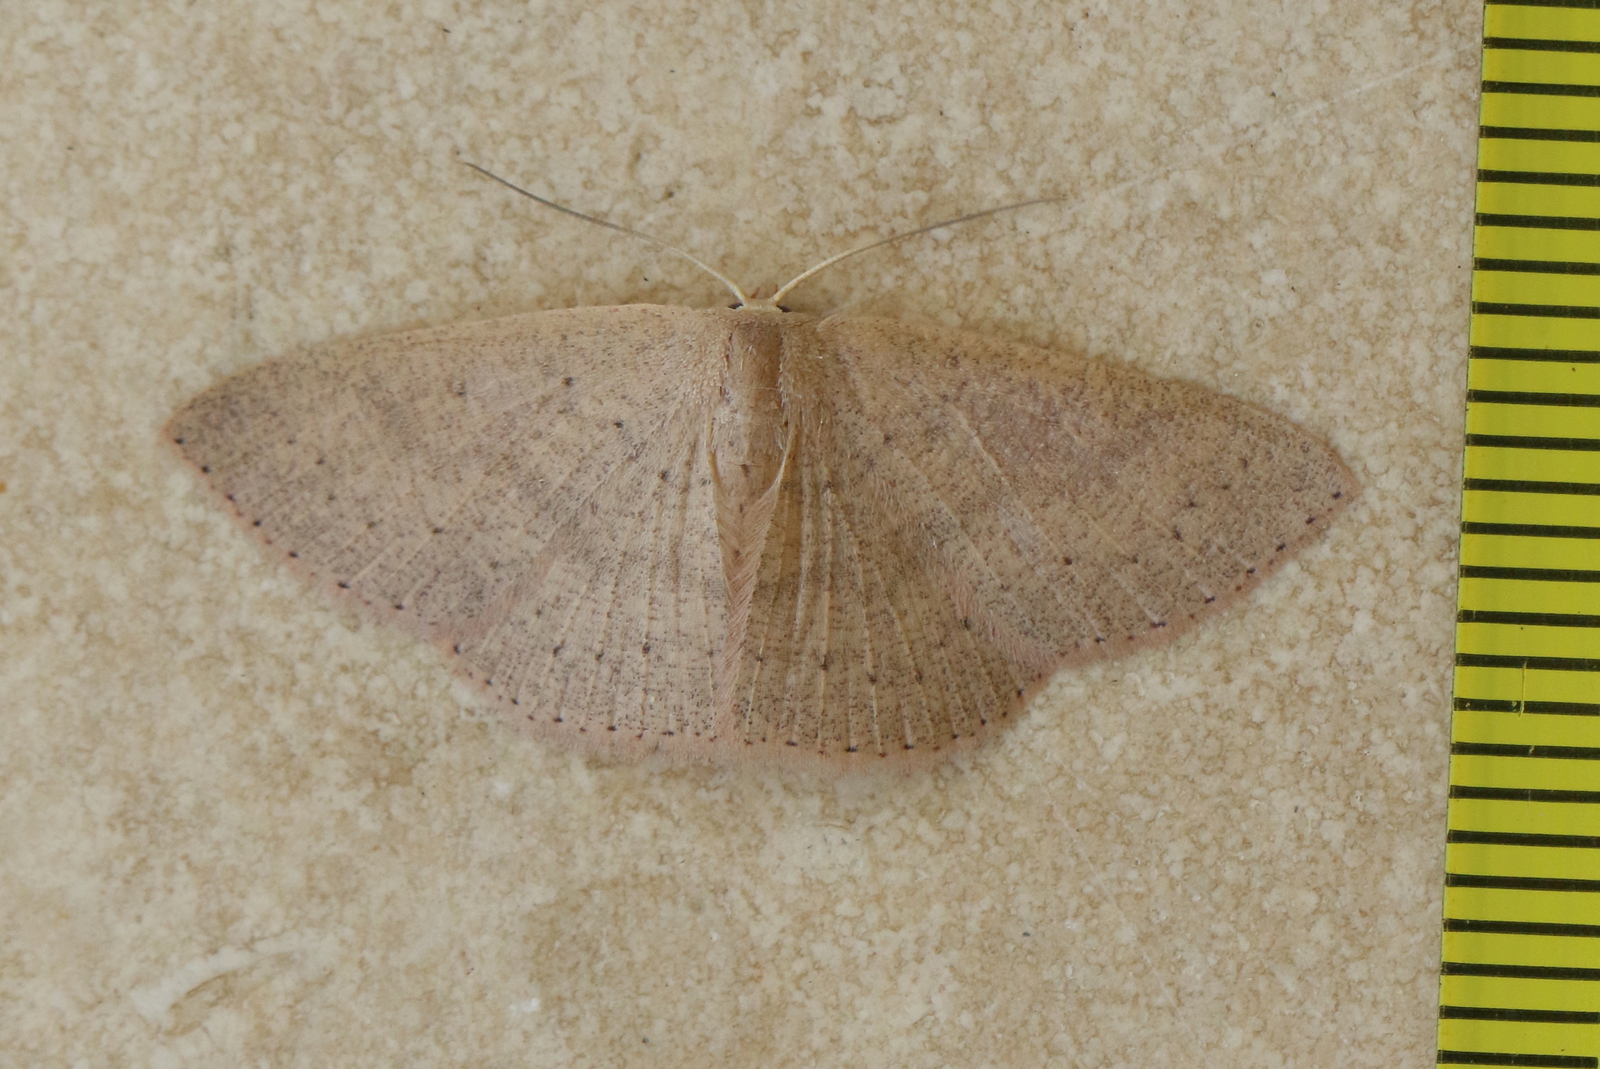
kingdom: Animalia
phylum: Arthropoda
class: Insecta
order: Lepidoptera
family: Geometridae
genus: Cyclophora
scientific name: Cyclophora obstataria
